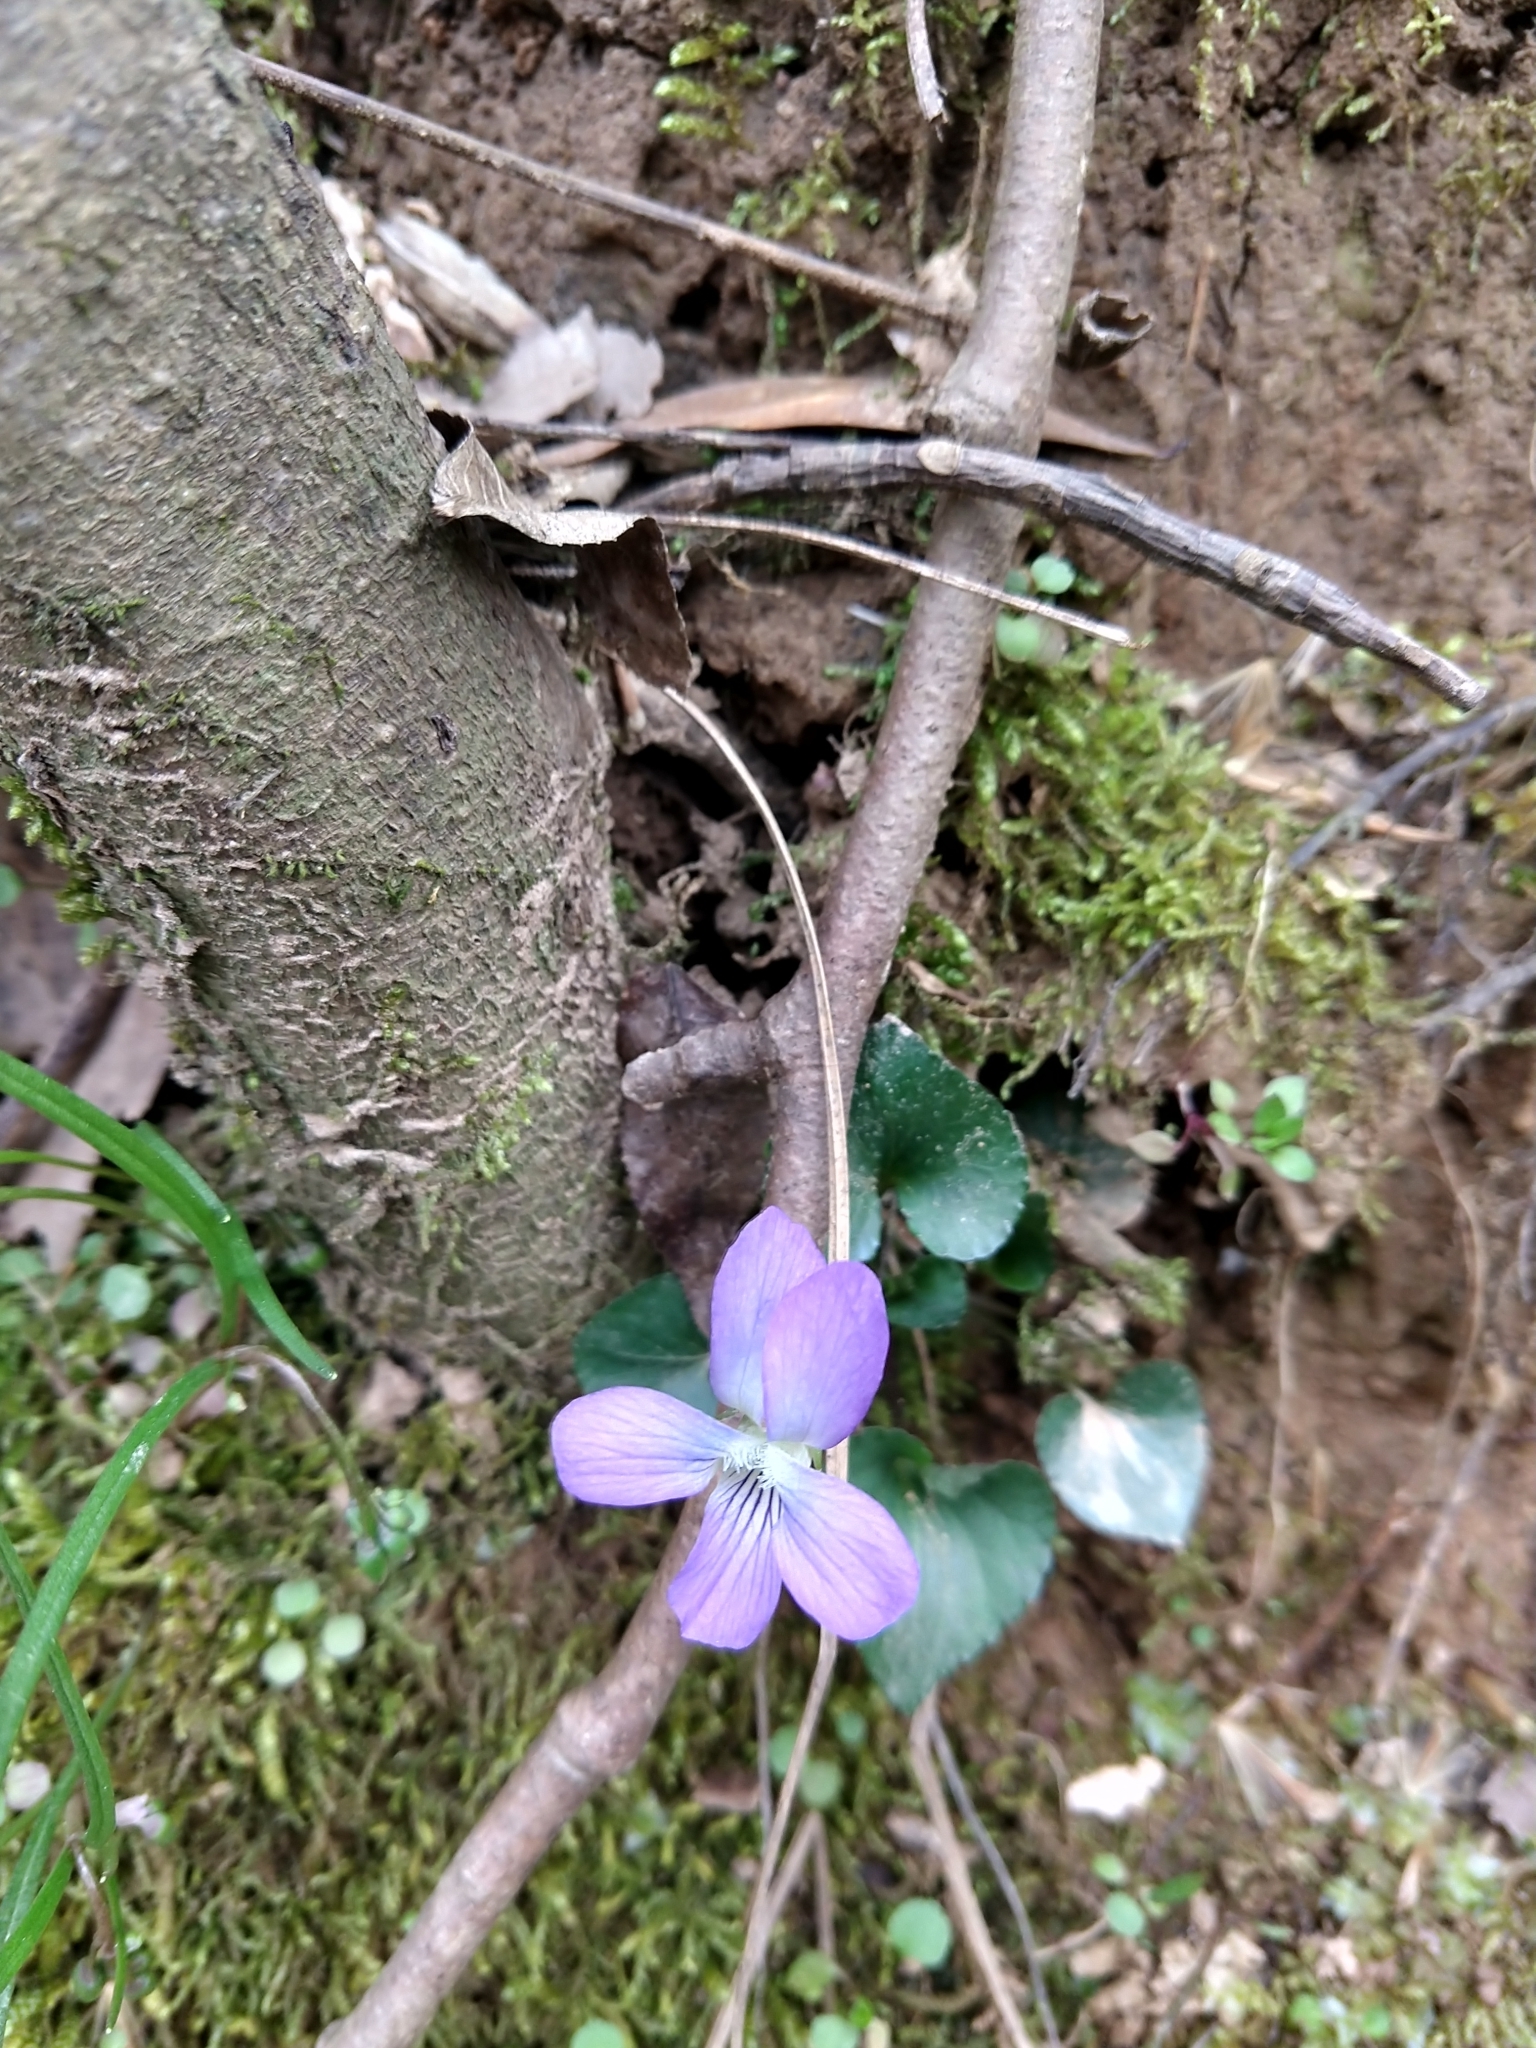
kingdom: Plantae
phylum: Tracheophyta
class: Magnoliopsida
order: Malpighiales
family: Violaceae
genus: Viola
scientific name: Viola sororia
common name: Dooryard violet
